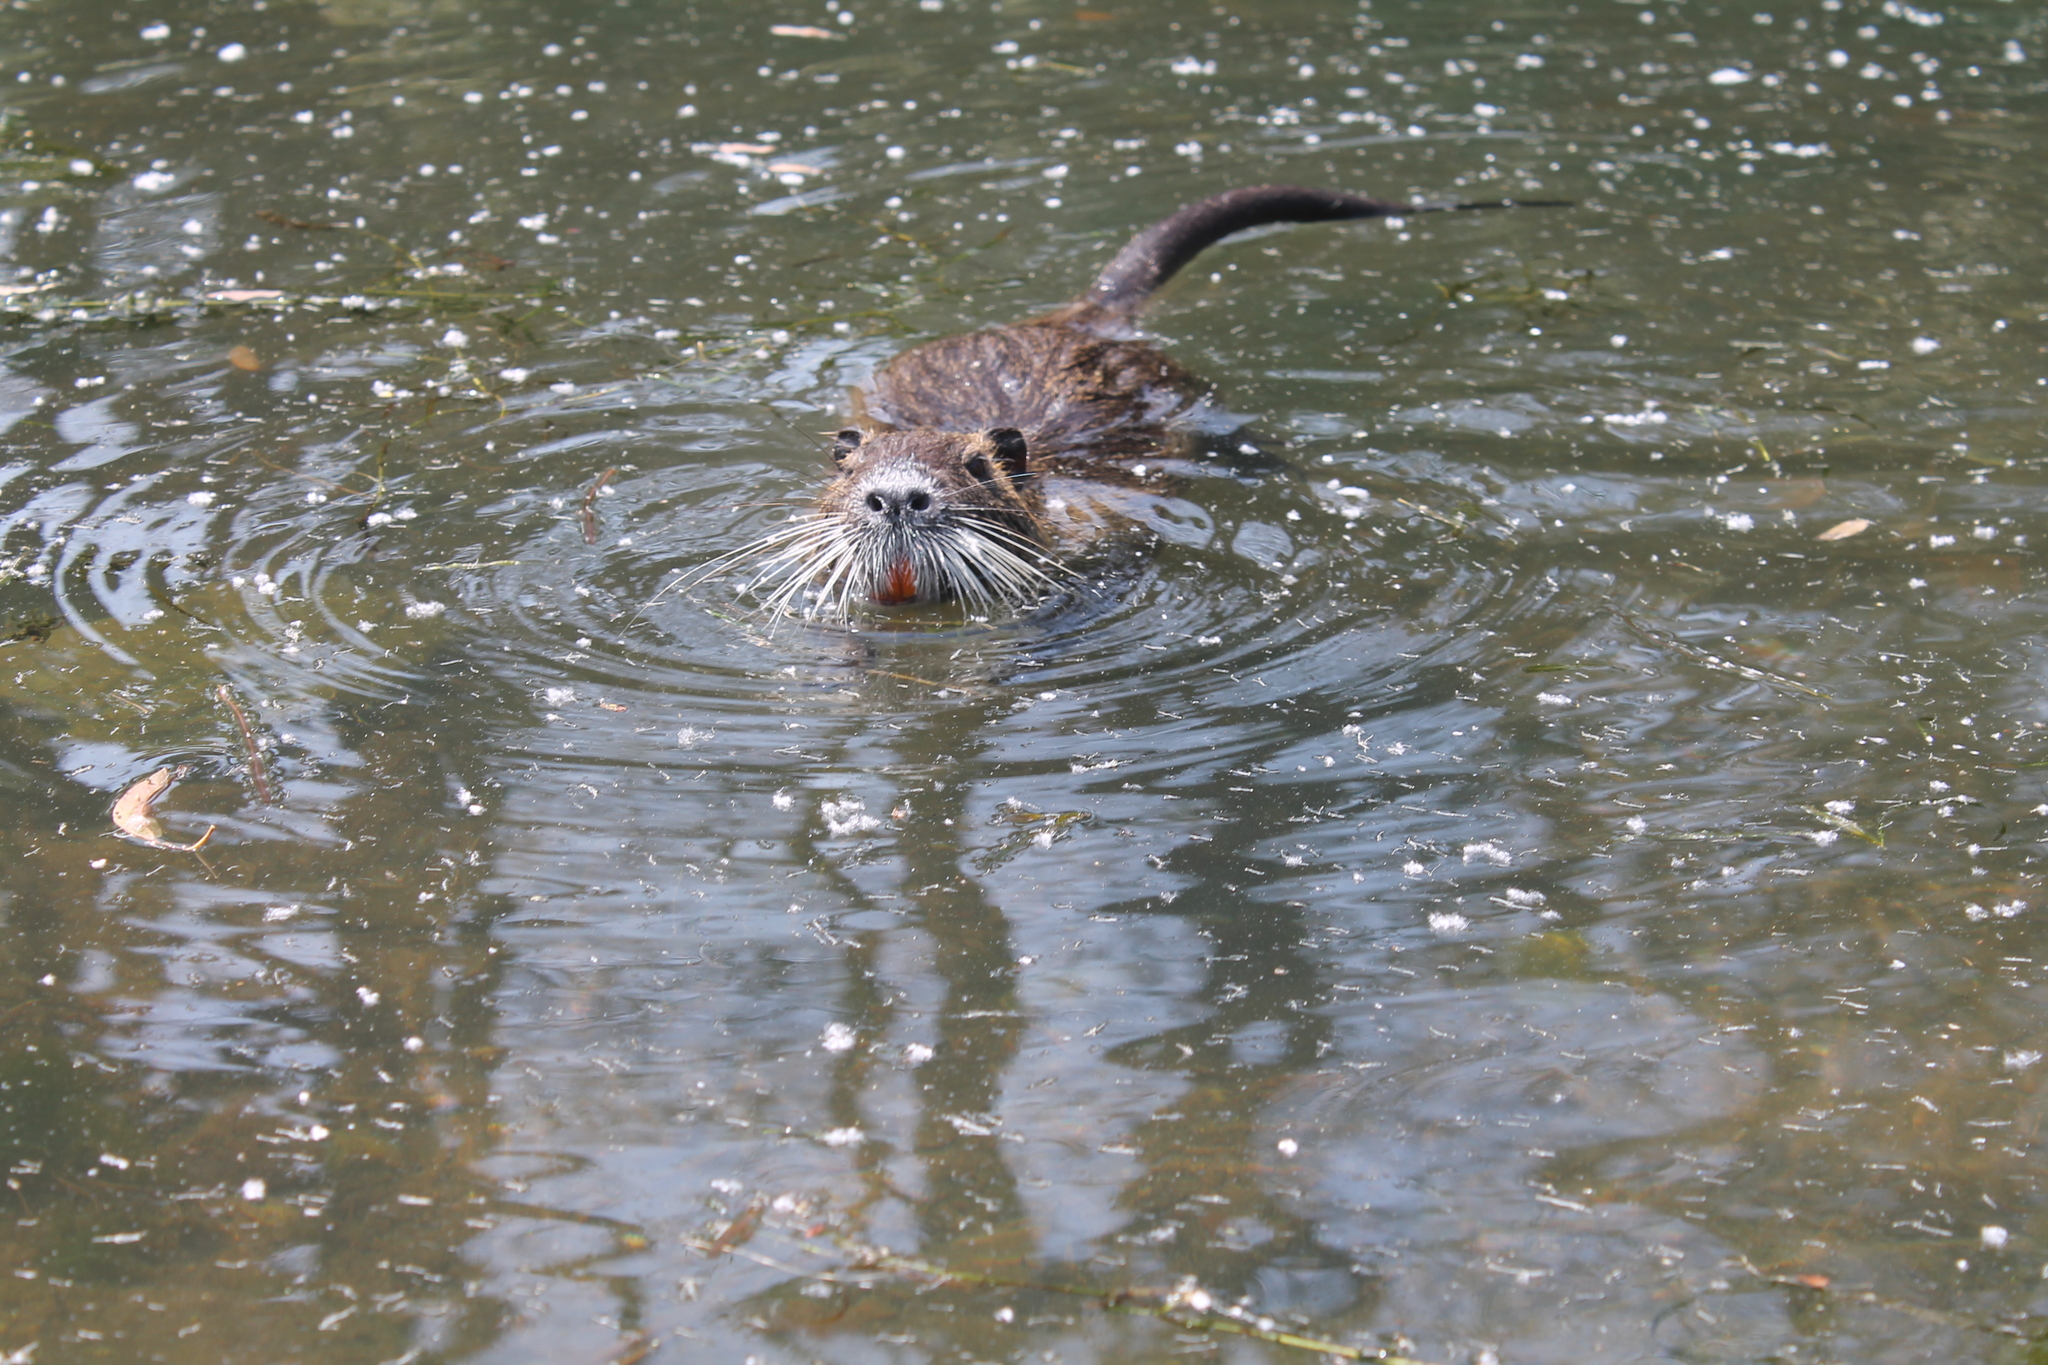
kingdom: Animalia
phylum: Chordata
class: Mammalia
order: Rodentia
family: Myocastoridae
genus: Myocastor
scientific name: Myocastor coypus
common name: Coypu
